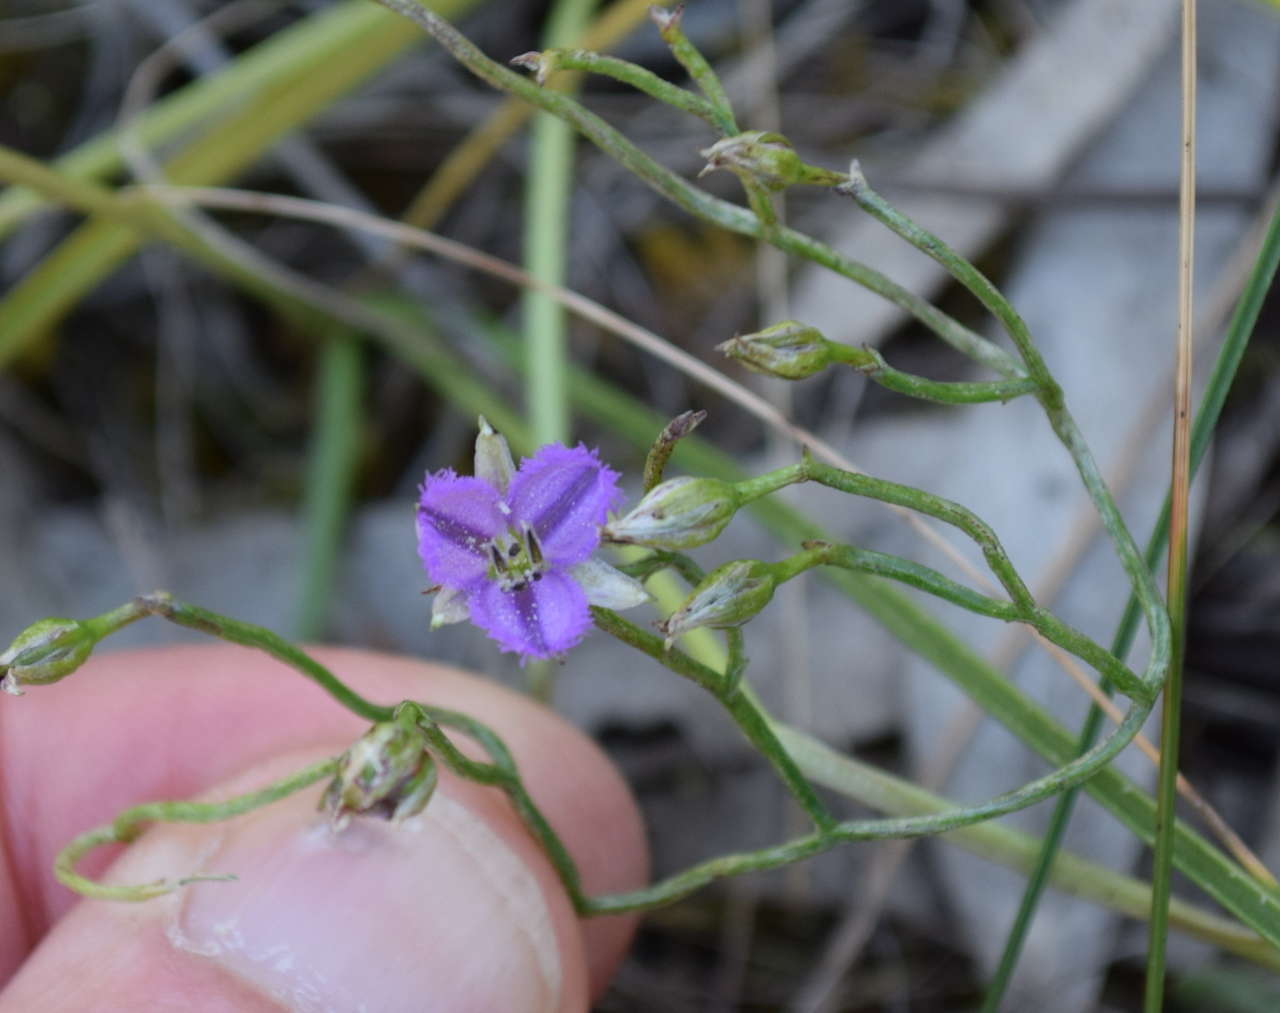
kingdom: Plantae
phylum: Tracheophyta
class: Liliopsida
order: Asparagales
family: Asparagaceae
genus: Thysanotus
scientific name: Thysanotus patersonii
